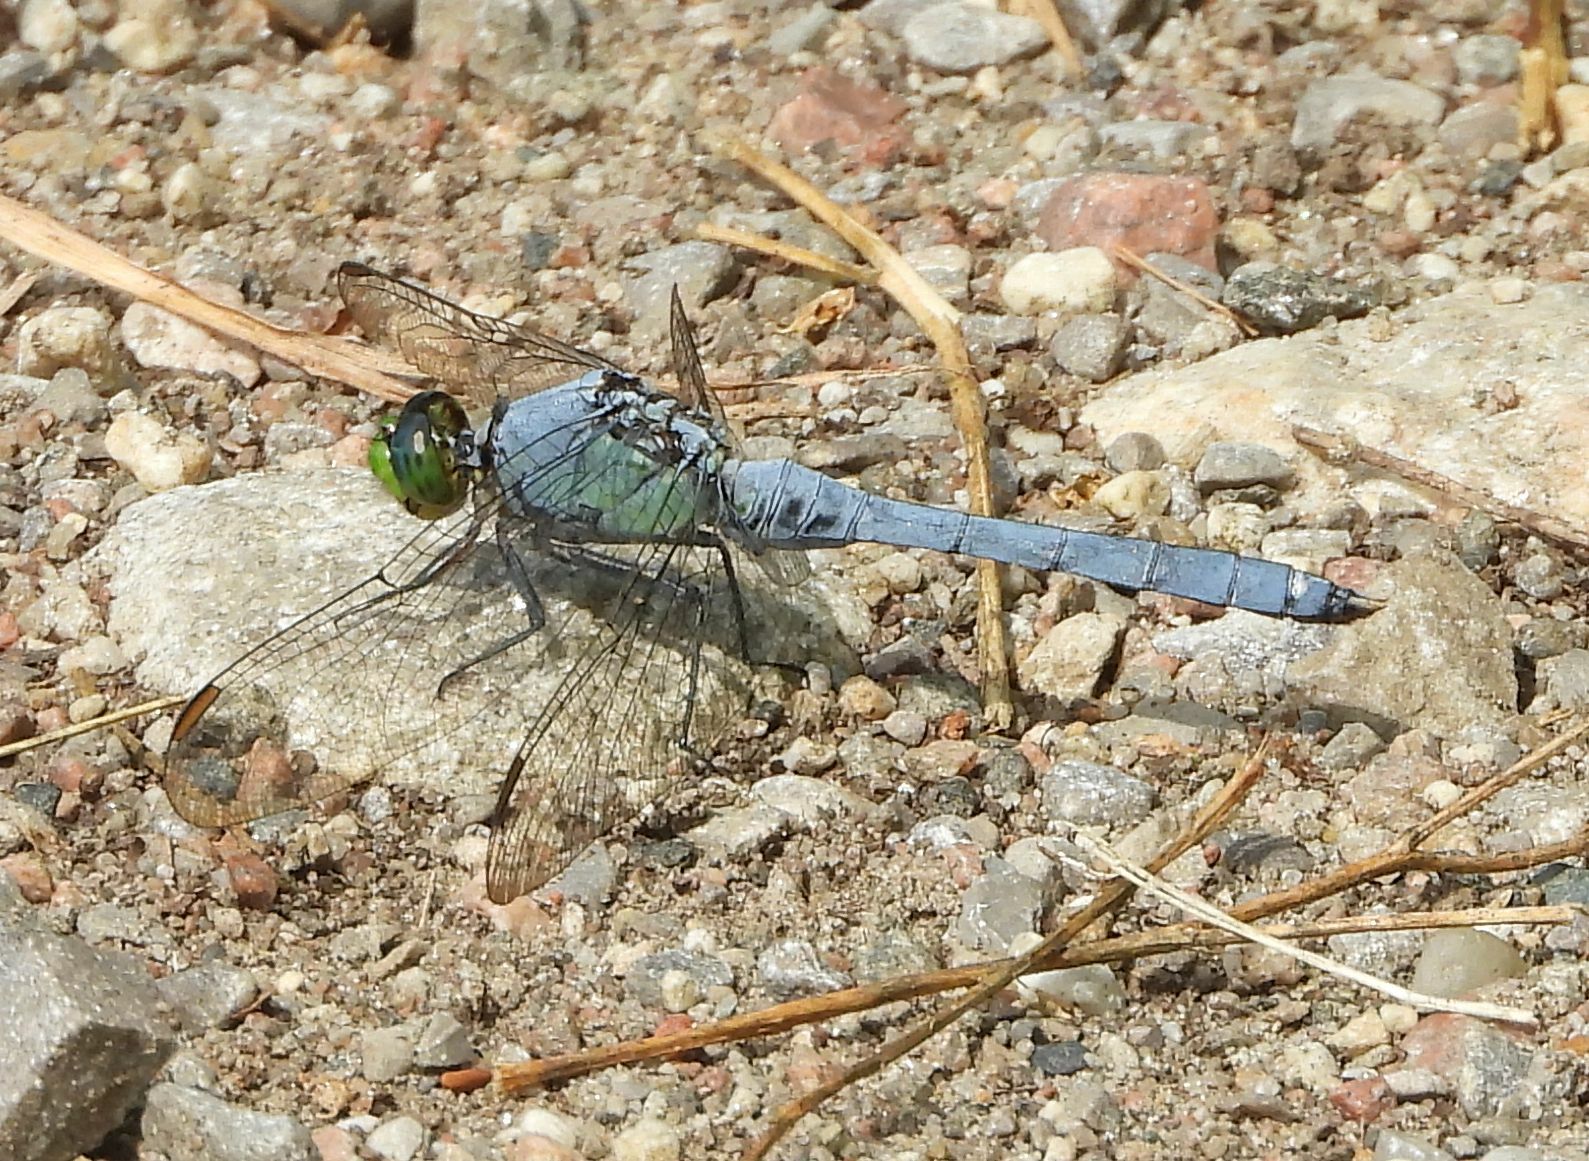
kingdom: Animalia
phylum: Arthropoda
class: Insecta
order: Odonata
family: Libellulidae
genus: Erythemis
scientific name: Erythemis simplicicollis
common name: Eastern pondhawk
